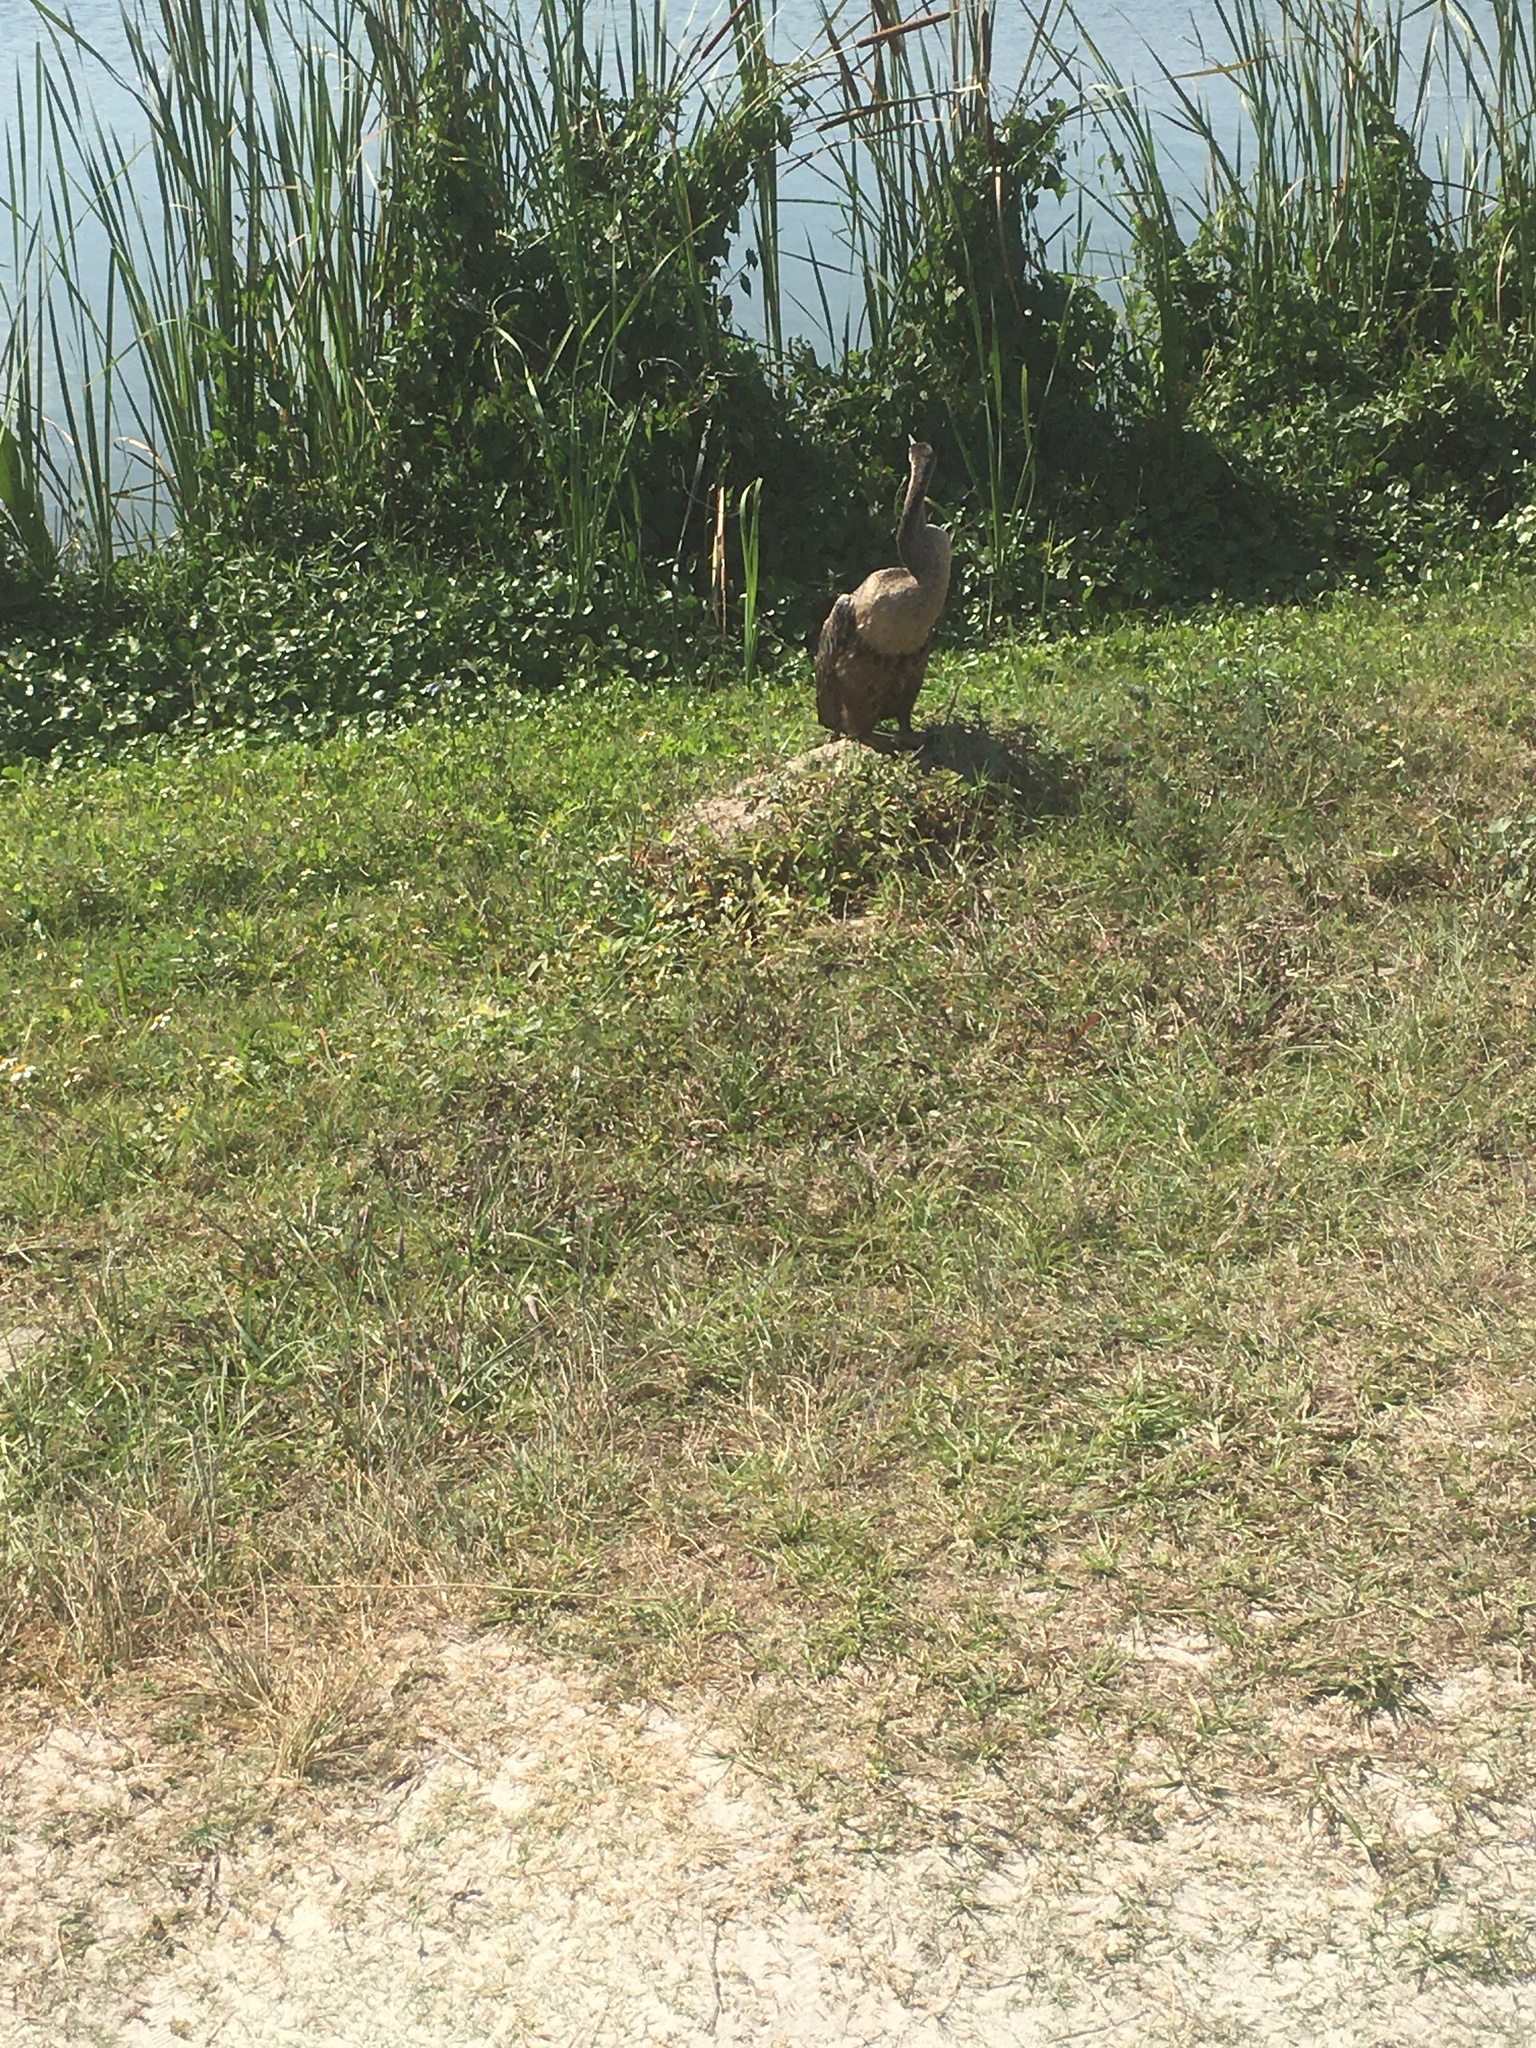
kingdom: Animalia
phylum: Chordata
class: Aves
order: Suliformes
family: Anhingidae
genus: Anhinga
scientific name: Anhinga anhinga
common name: Anhinga
